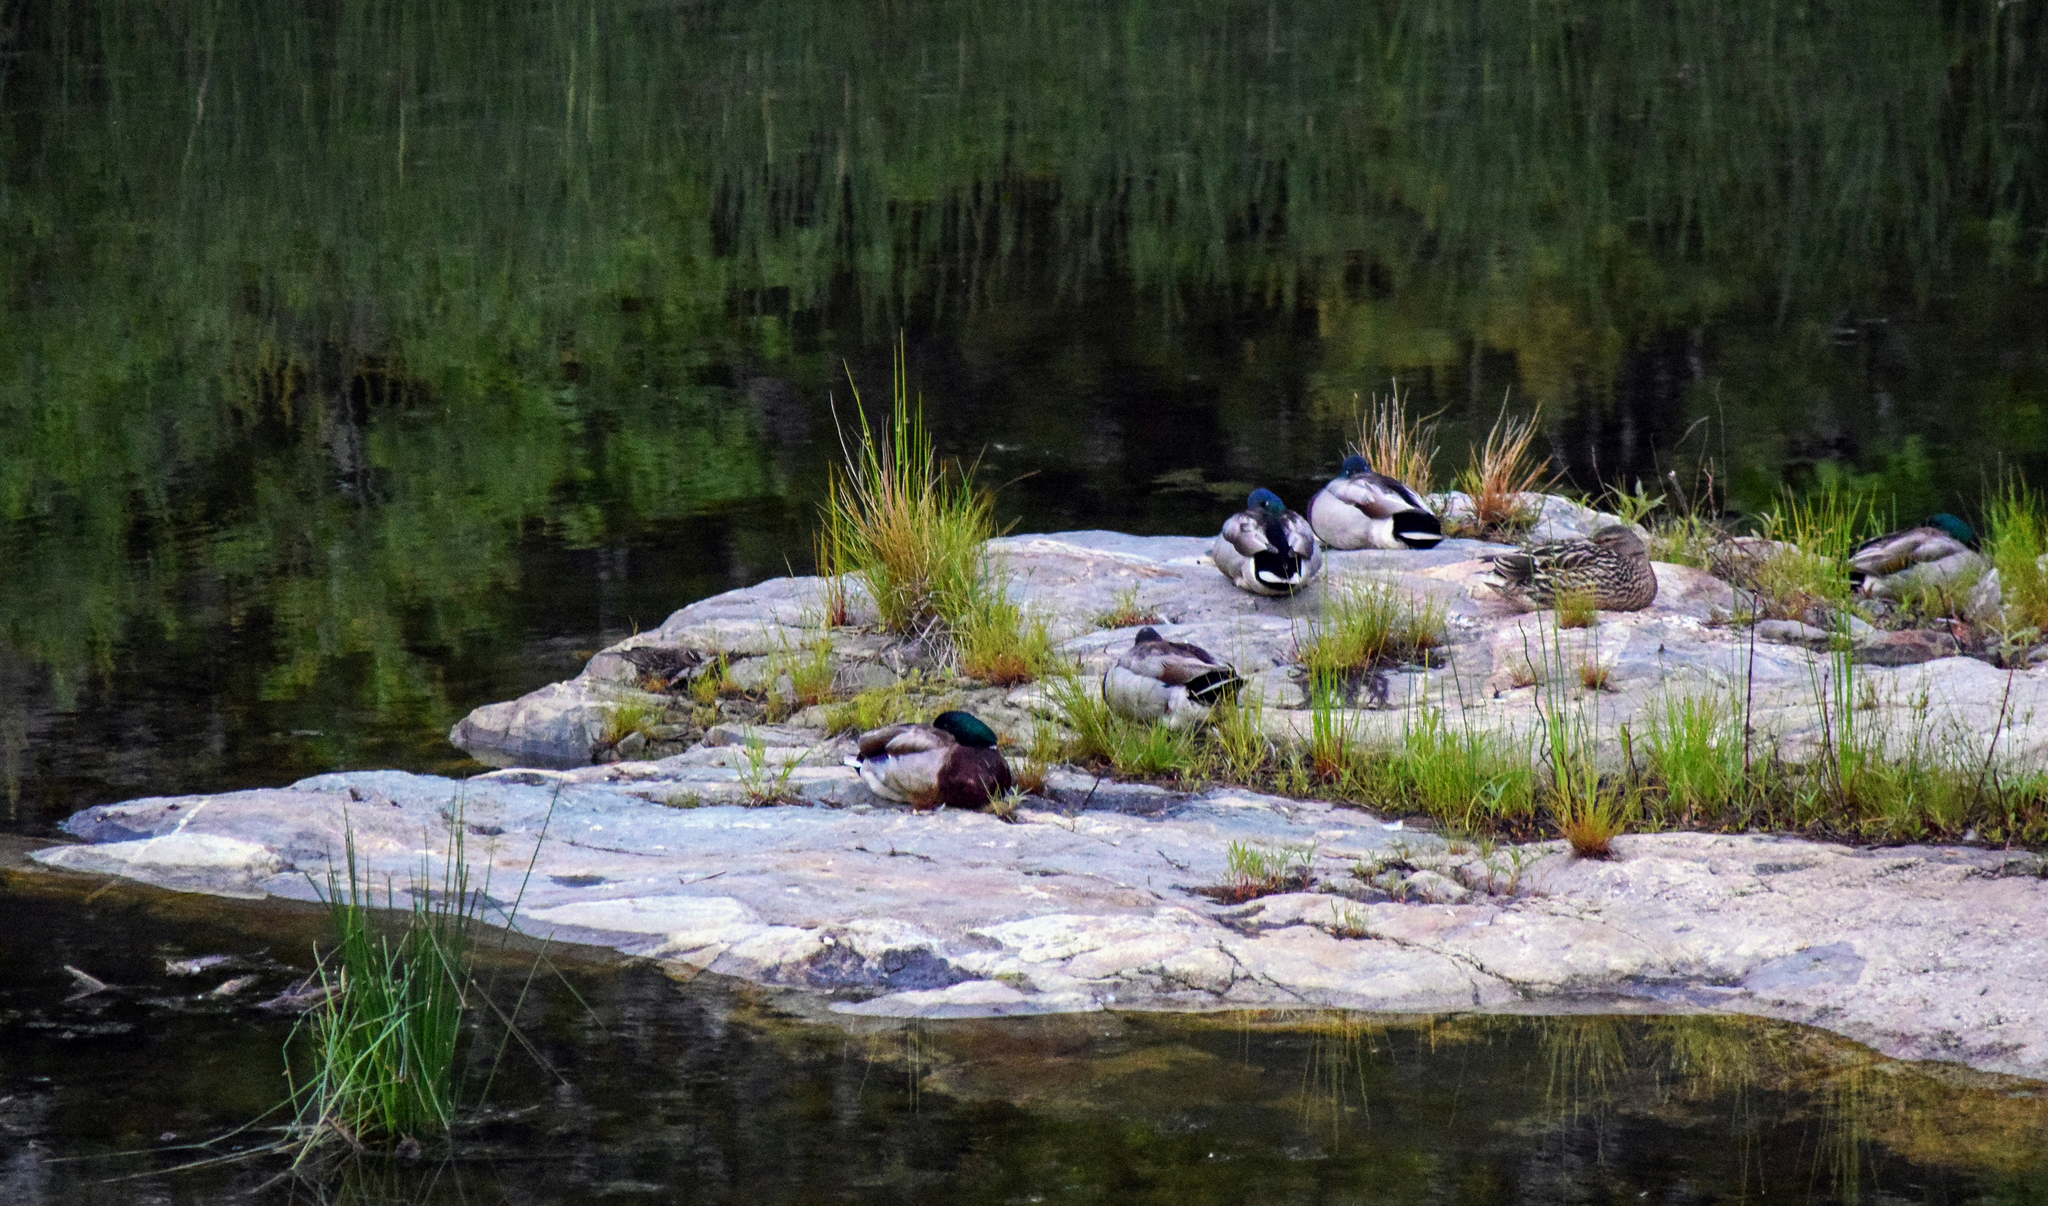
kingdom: Animalia
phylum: Chordata
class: Aves
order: Anseriformes
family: Anatidae
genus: Anas
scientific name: Anas platyrhynchos
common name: Mallard
